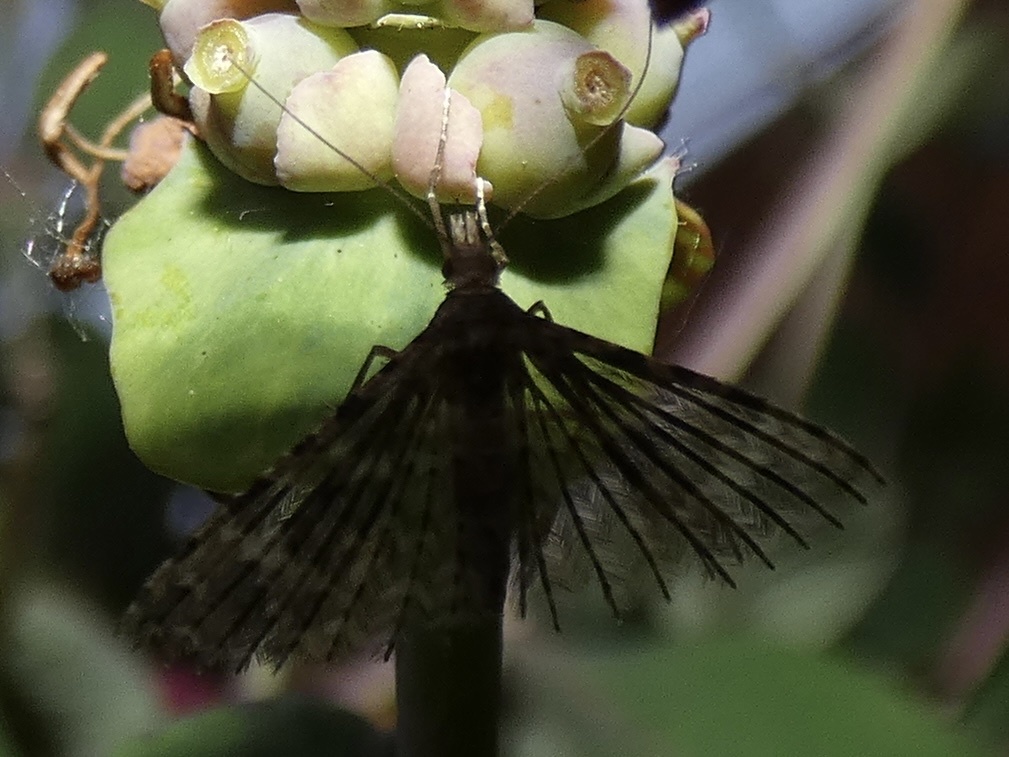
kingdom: Animalia
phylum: Arthropoda
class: Insecta
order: Lepidoptera
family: Alucitidae
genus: Alucita
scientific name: Alucita hexadactyla
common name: Twenty-plume moth
